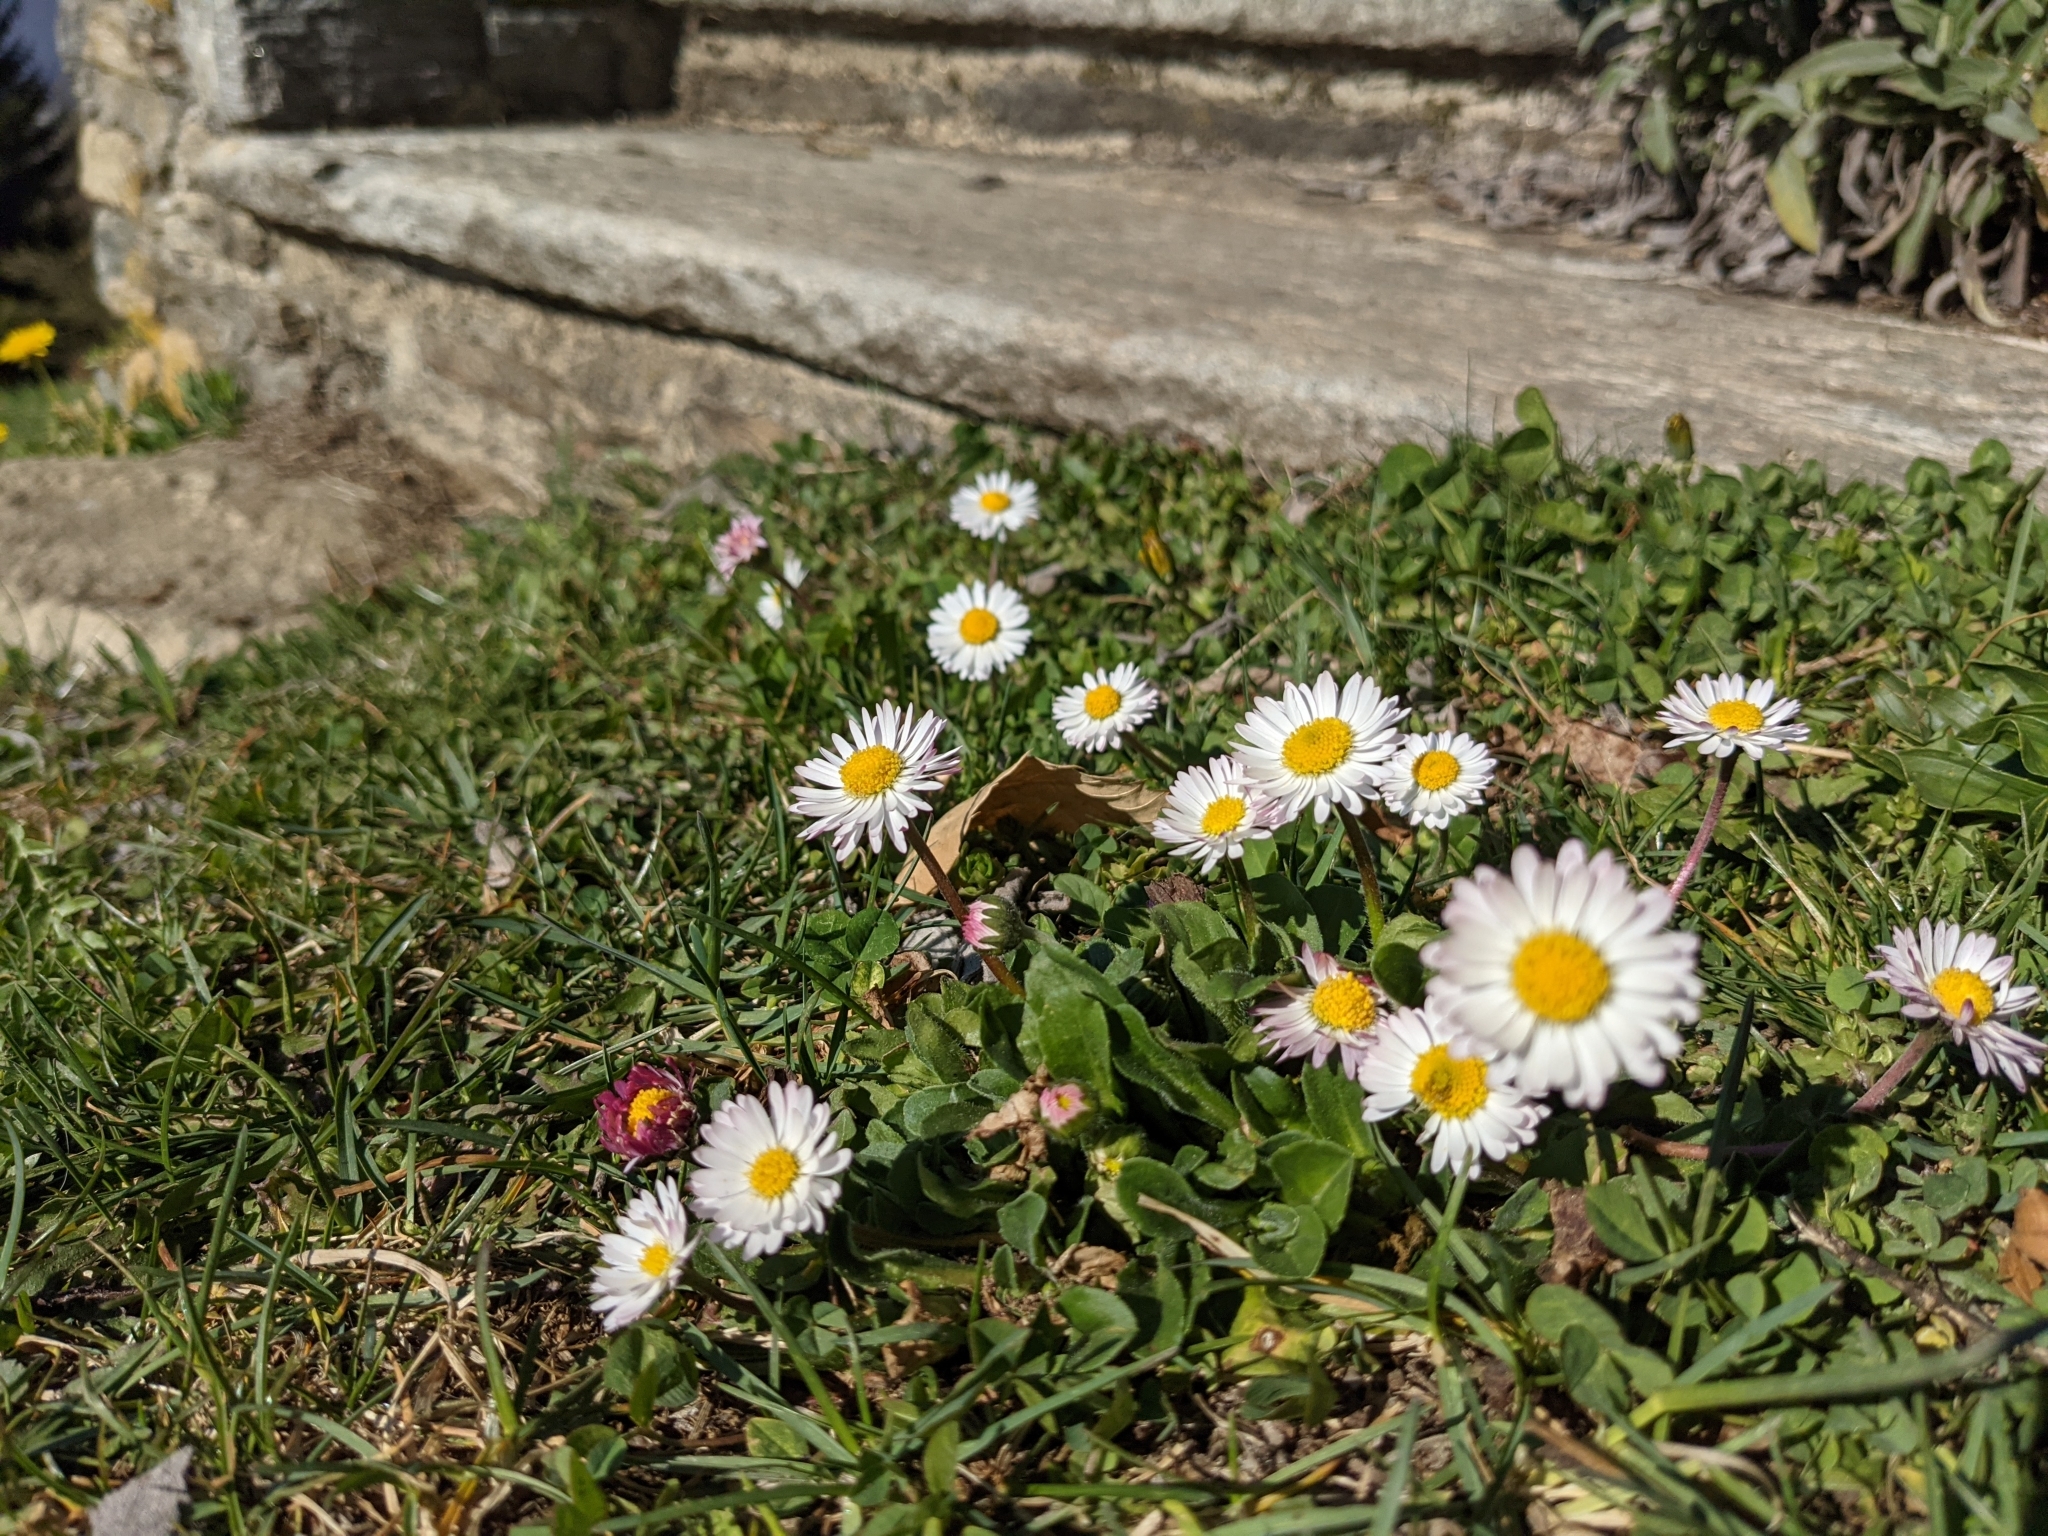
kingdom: Plantae
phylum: Tracheophyta
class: Magnoliopsida
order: Asterales
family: Asteraceae
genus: Bellis
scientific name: Bellis perennis
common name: Lawndaisy
